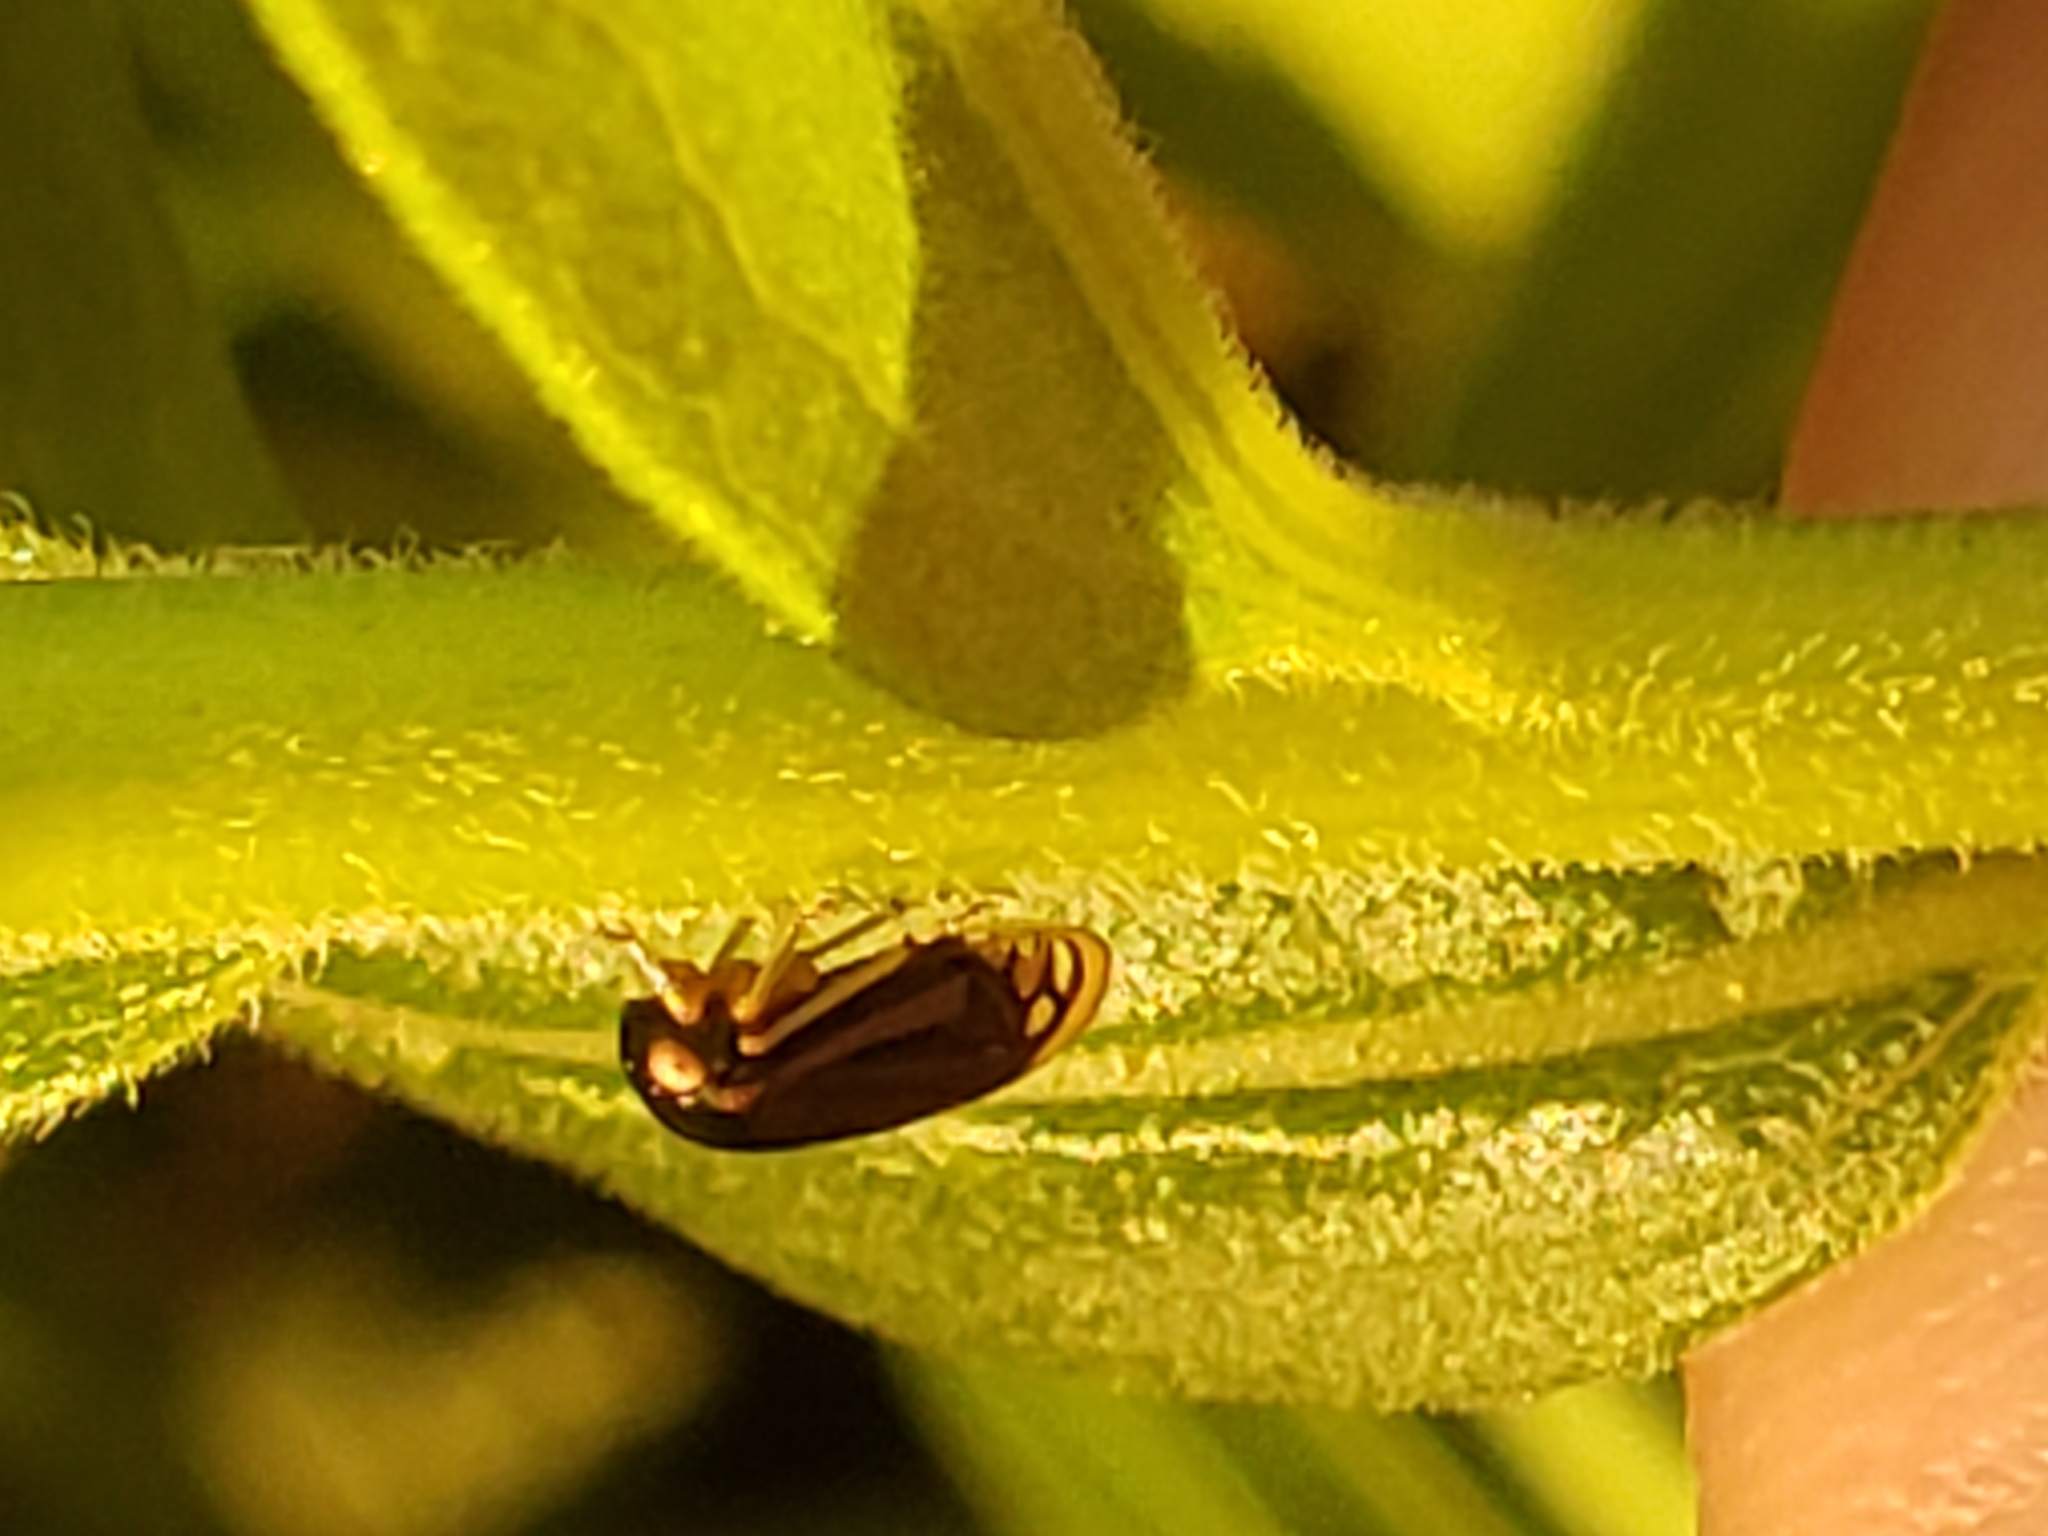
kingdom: Animalia
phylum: Arthropoda
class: Insecta
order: Hemiptera
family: Membracidae
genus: Acutalis
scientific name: Acutalis tartarea
